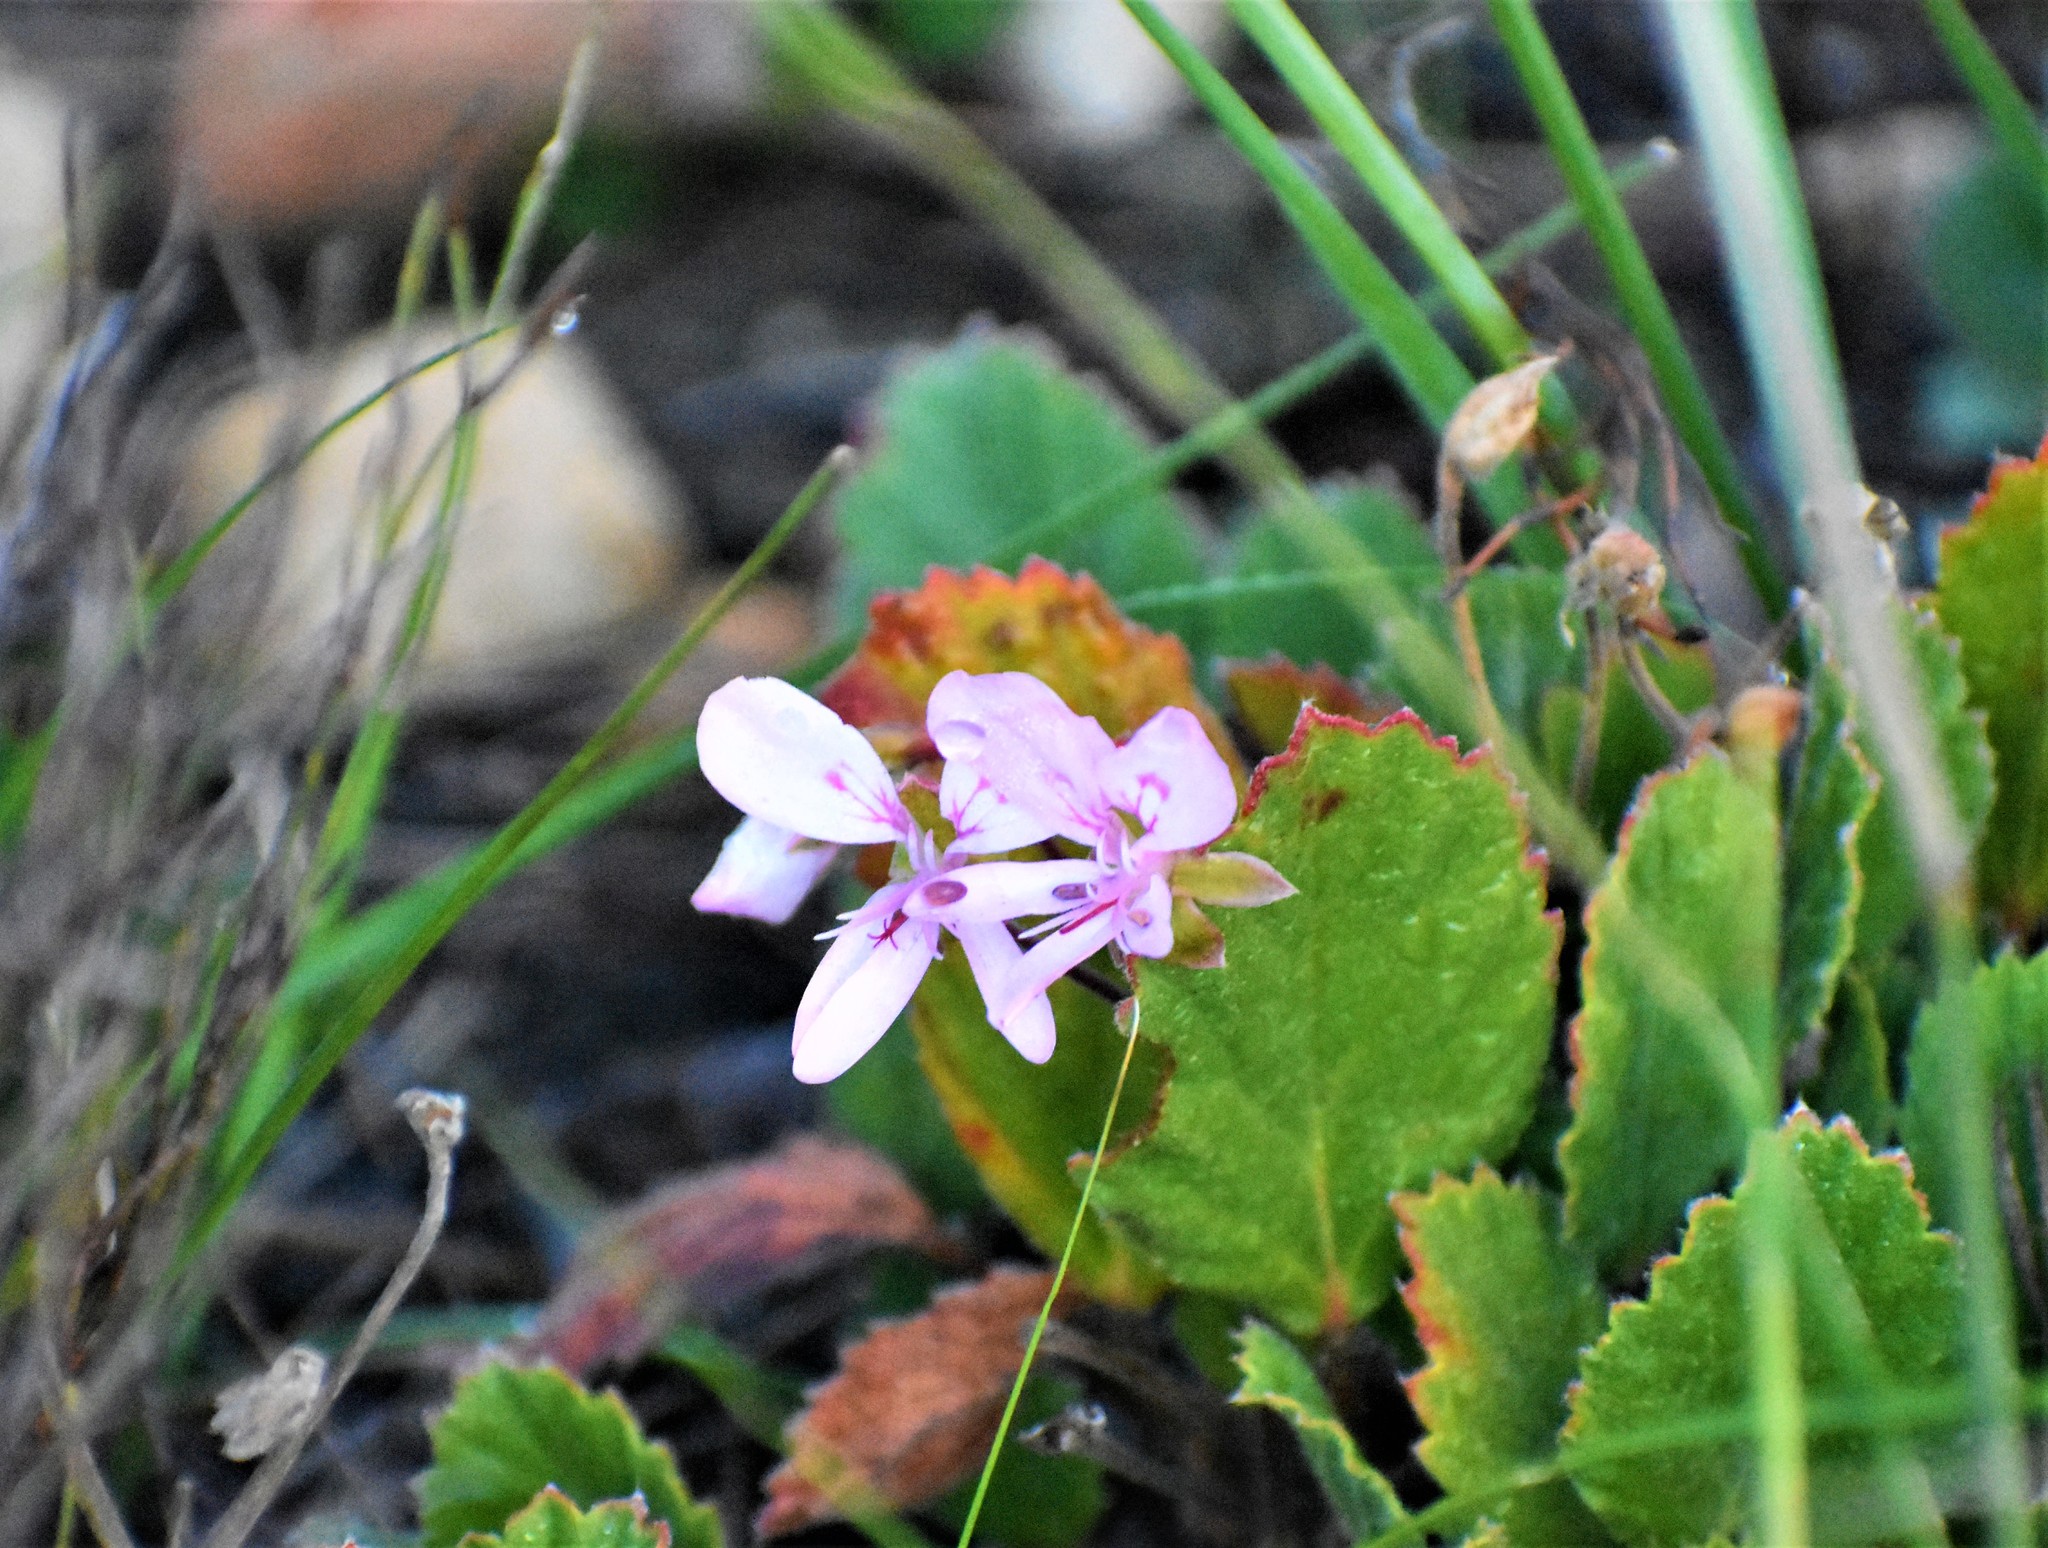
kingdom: Plantae
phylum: Tracheophyta
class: Magnoliopsida
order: Geraniales
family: Geraniaceae
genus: Pelargonium
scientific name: Pelargonium ovale
